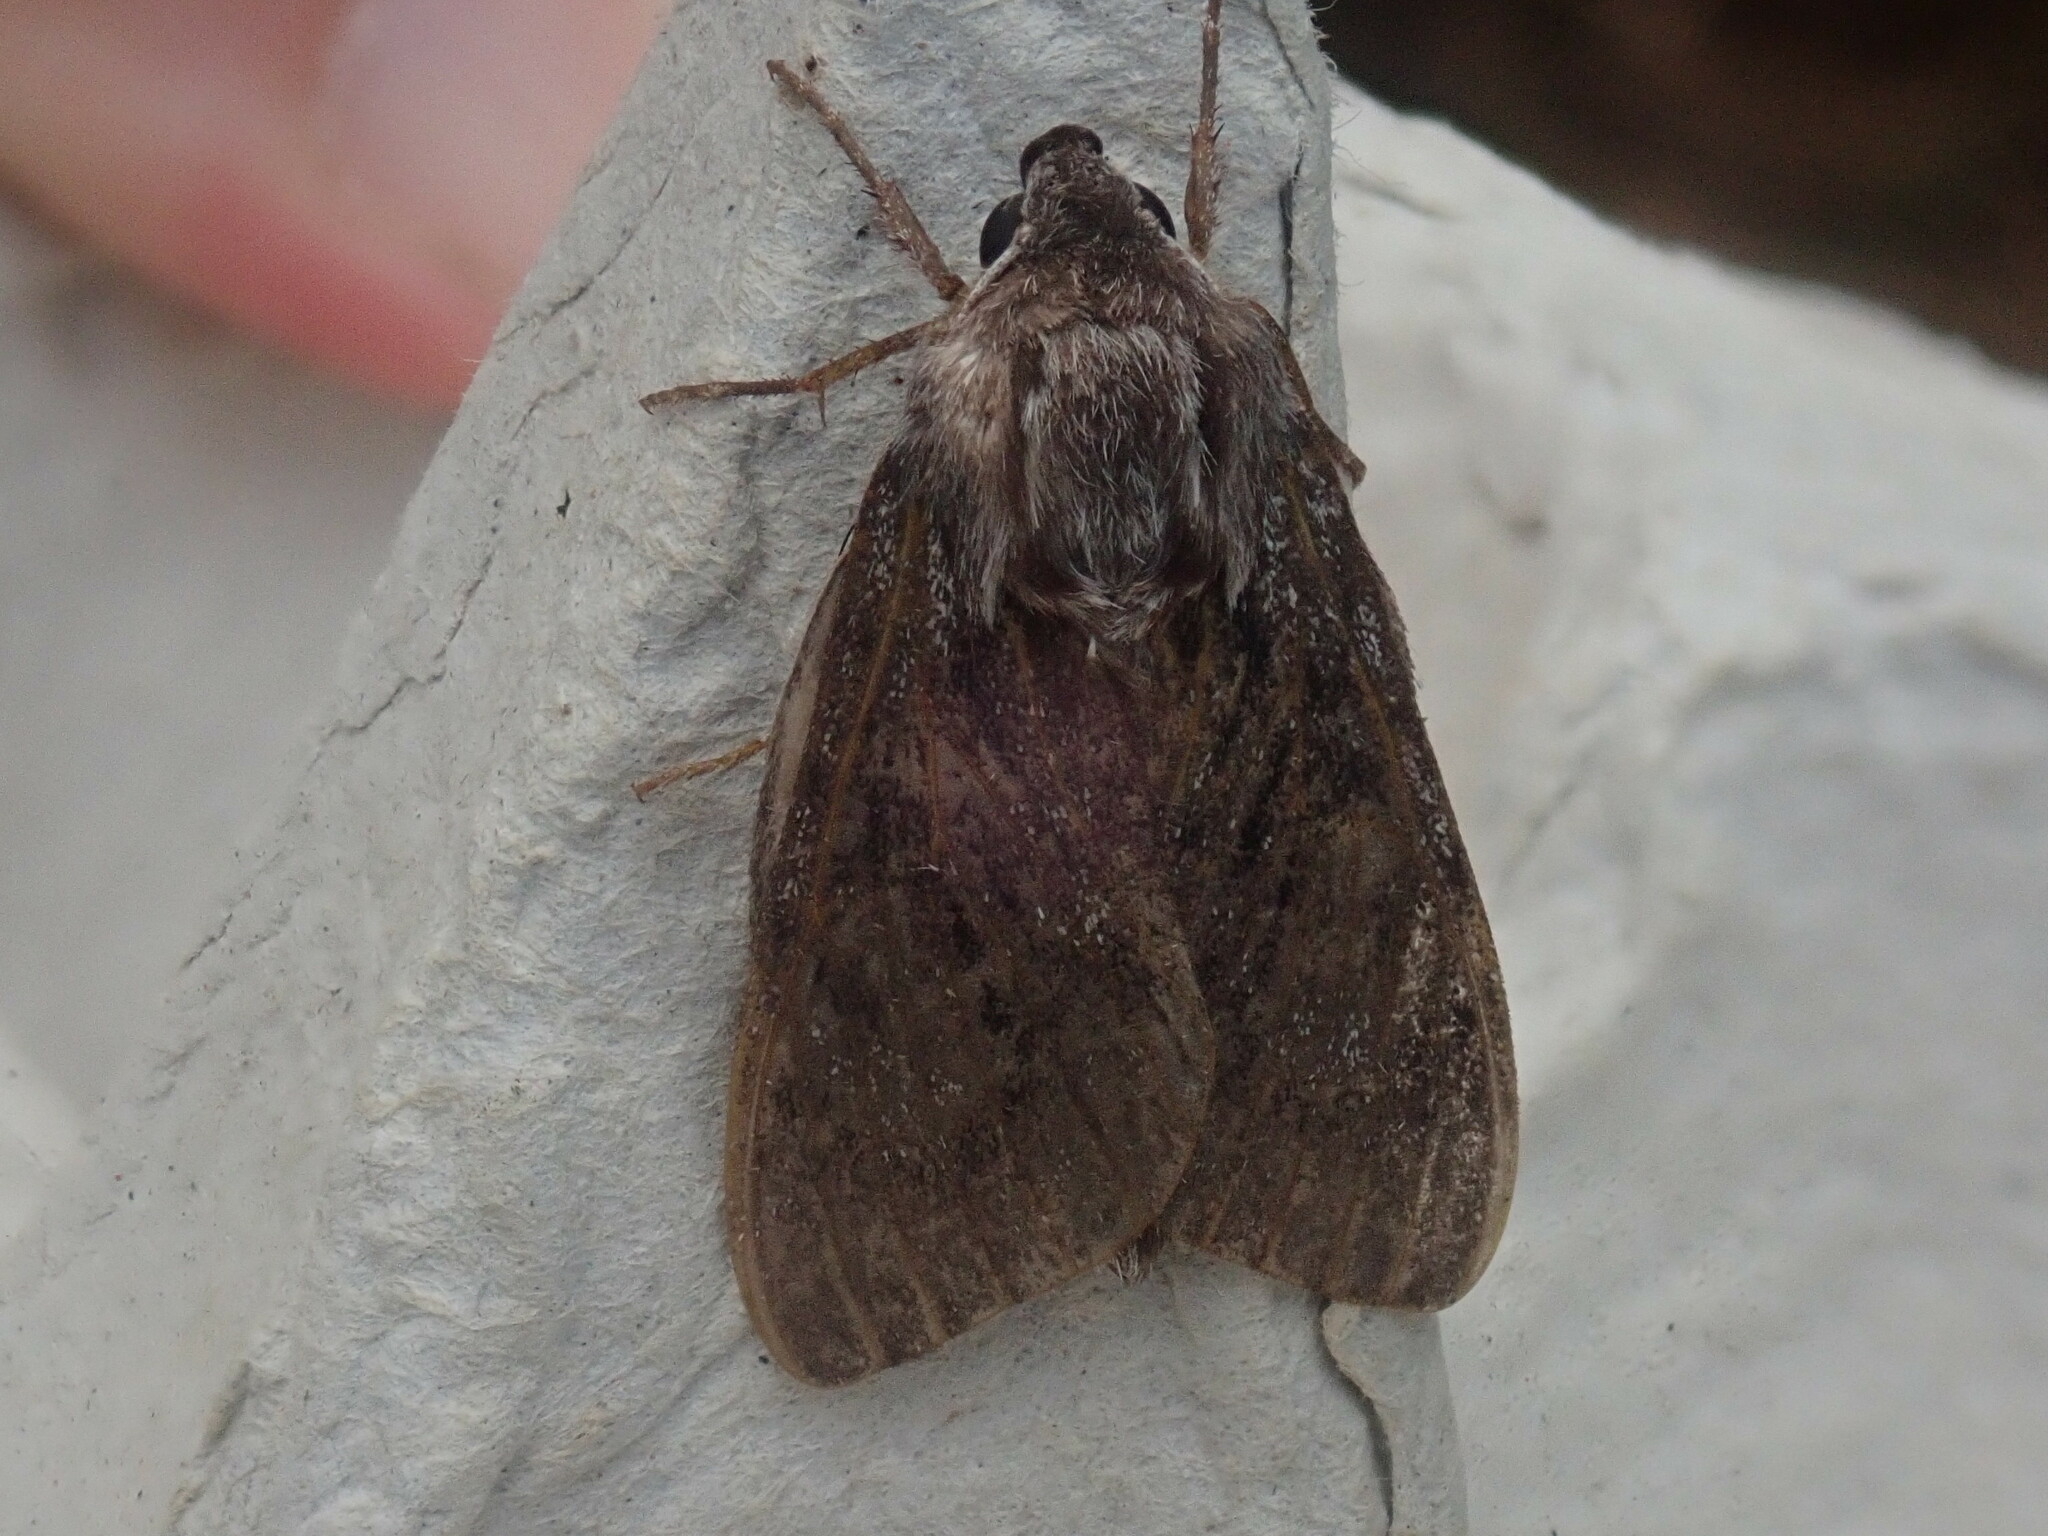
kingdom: Animalia
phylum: Arthropoda
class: Insecta
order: Lepidoptera
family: Sphingidae
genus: Lapara
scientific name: Lapara bombycoides
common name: Northern pine sphinx
